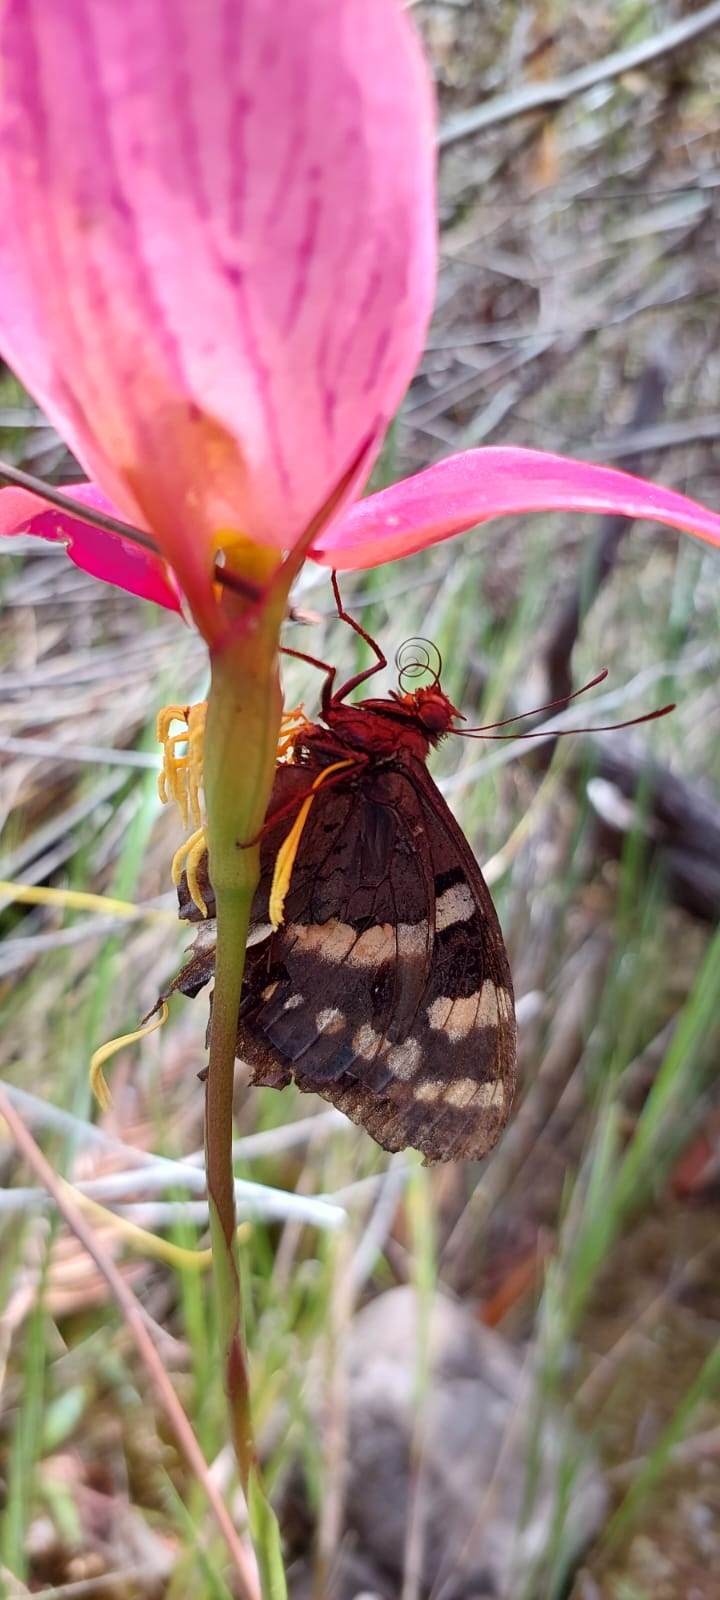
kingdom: Animalia
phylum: Arthropoda
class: Insecta
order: Lepidoptera
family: Nymphalidae
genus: Meneris
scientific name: Meneris Aeropetes tulbaghia
